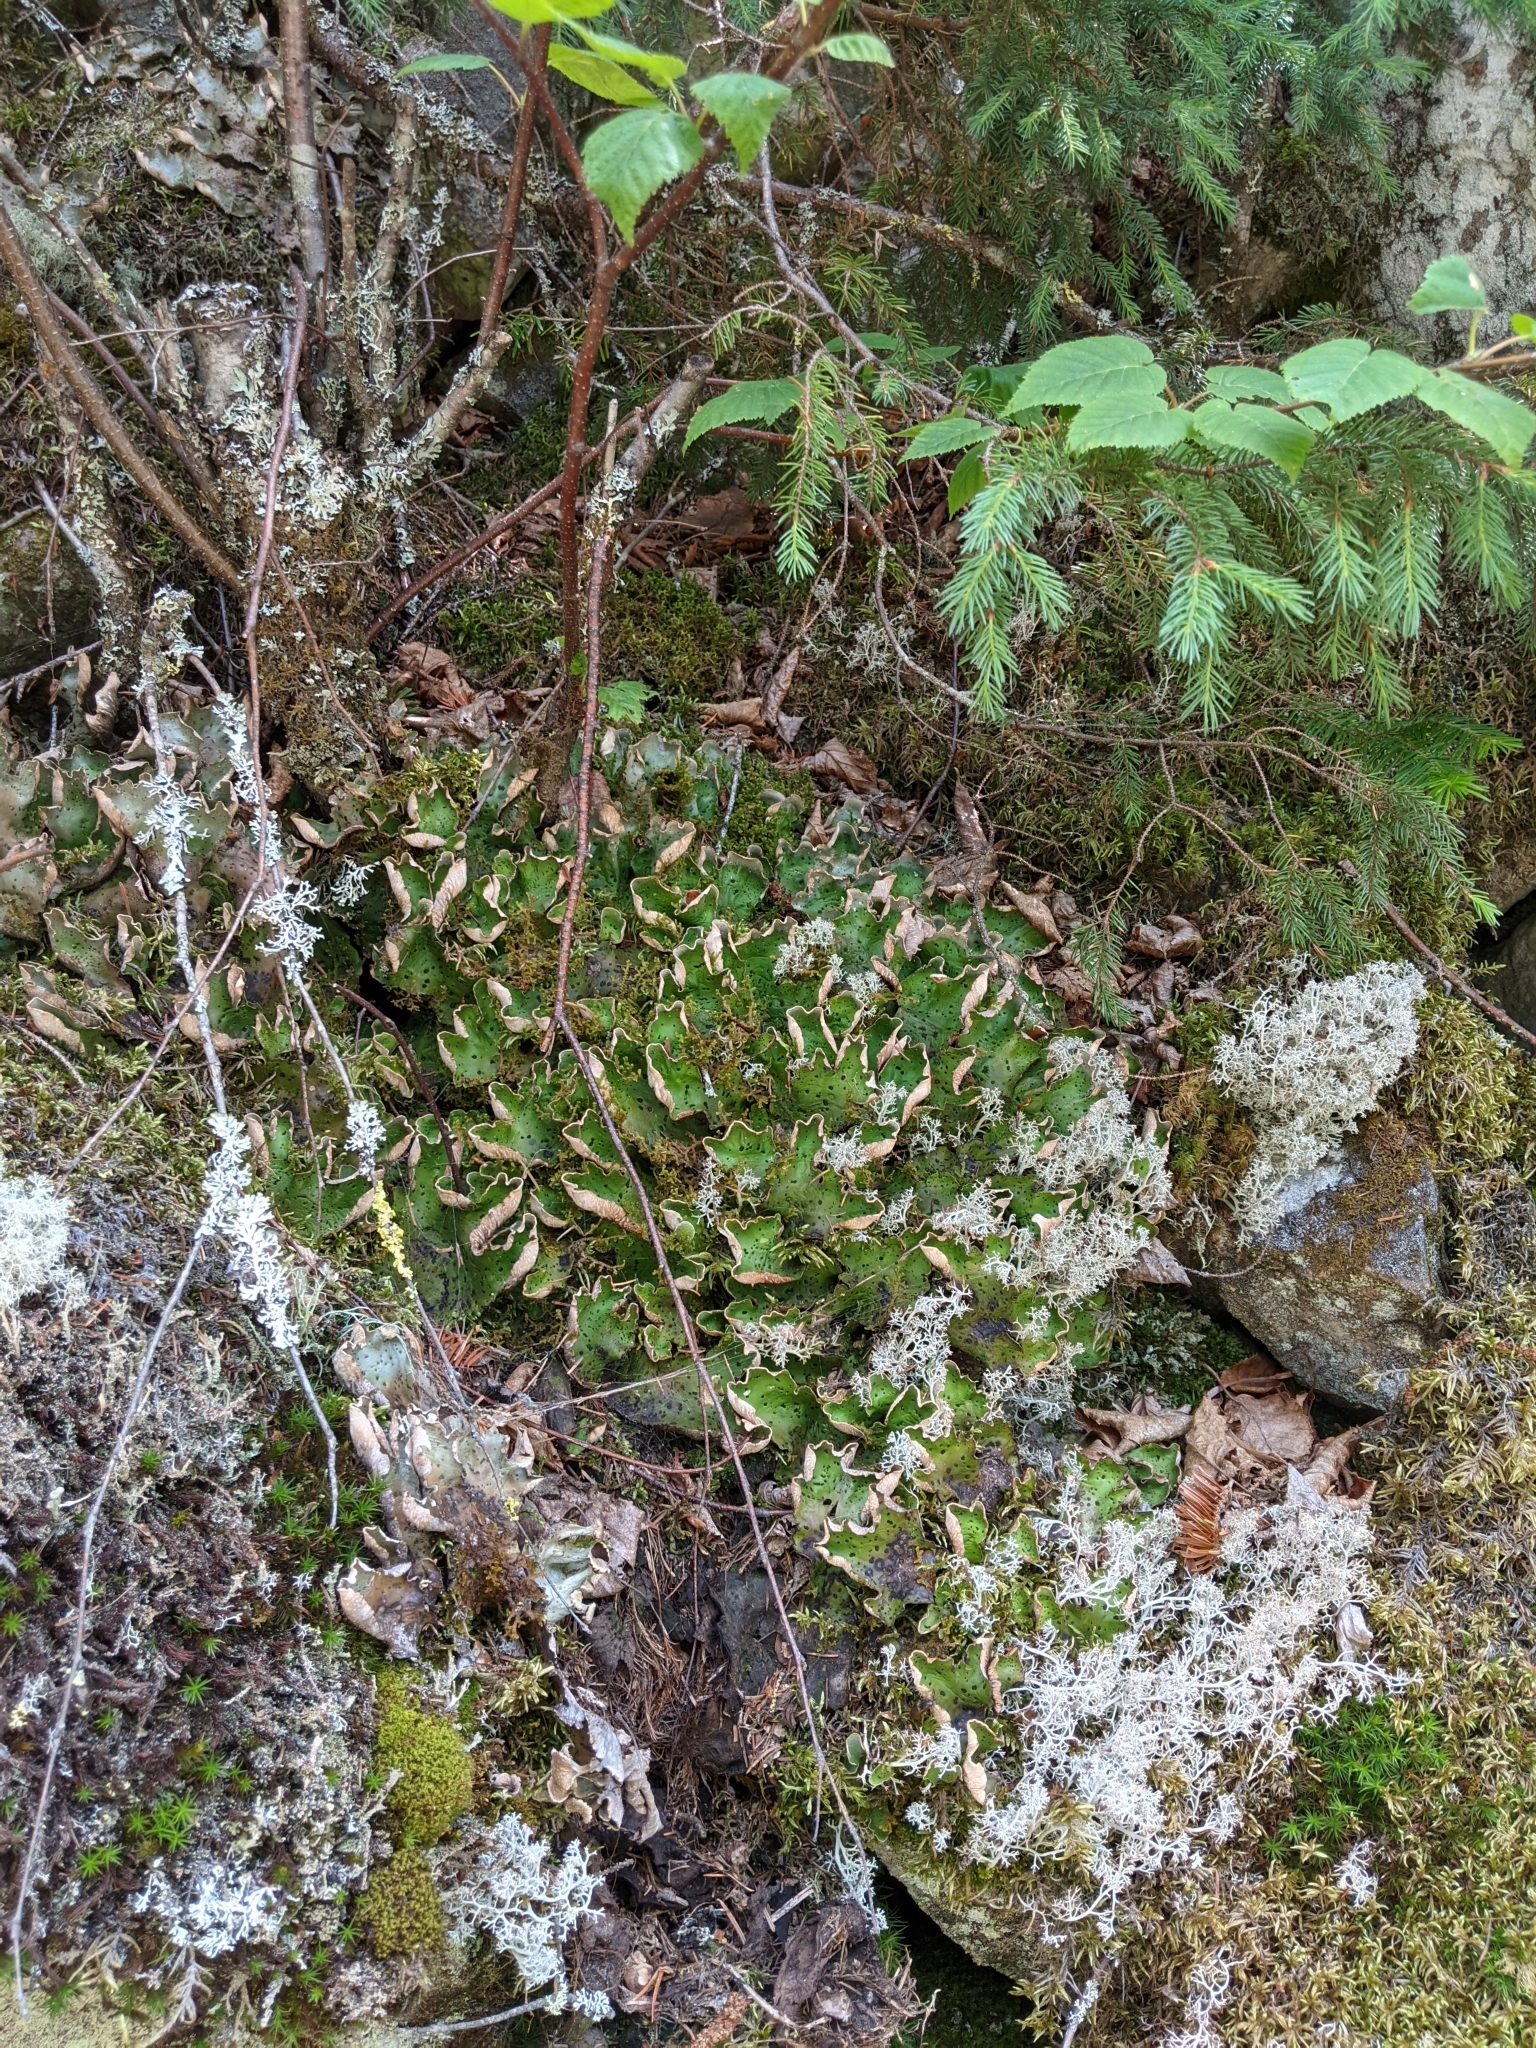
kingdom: Fungi
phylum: Ascomycota
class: Lecanoromycetes
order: Peltigerales
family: Peltigeraceae
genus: Peltigera
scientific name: Peltigera aphthosa
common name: Common freckle pelt lichen
